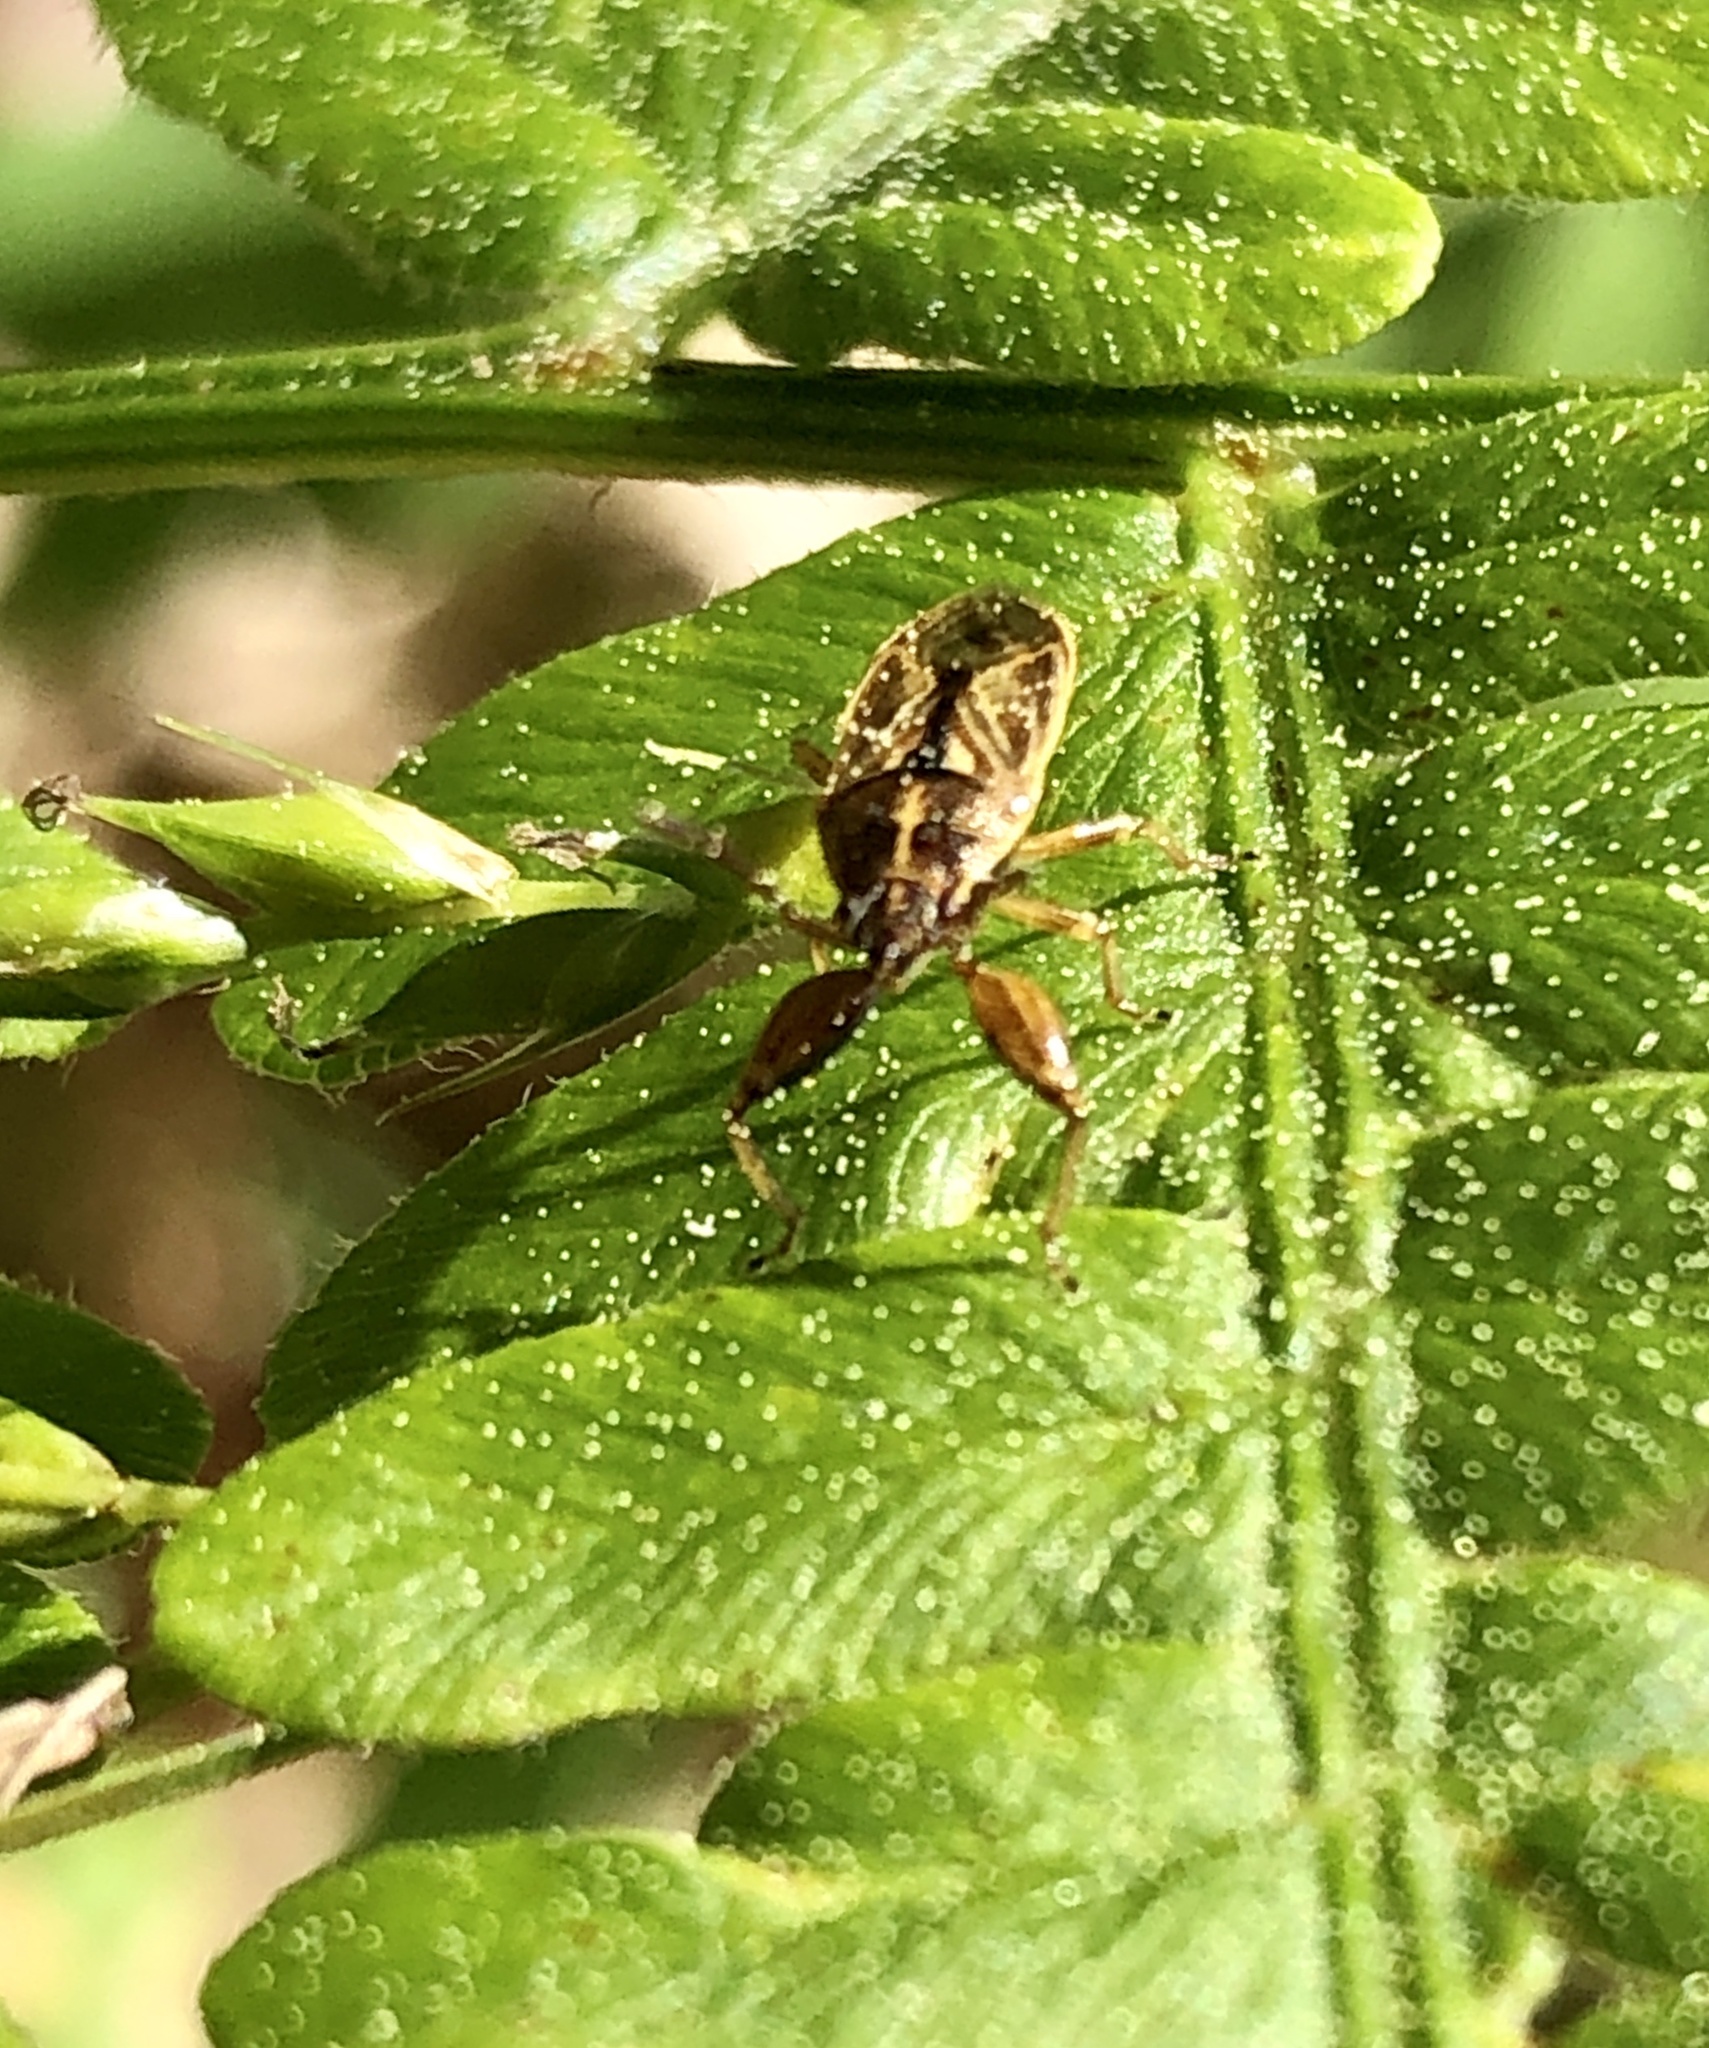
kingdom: Animalia
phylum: Arthropoda
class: Insecta
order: Hemiptera
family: Pachygronthidae
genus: Oedancala
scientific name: Oedancala dorsalis
